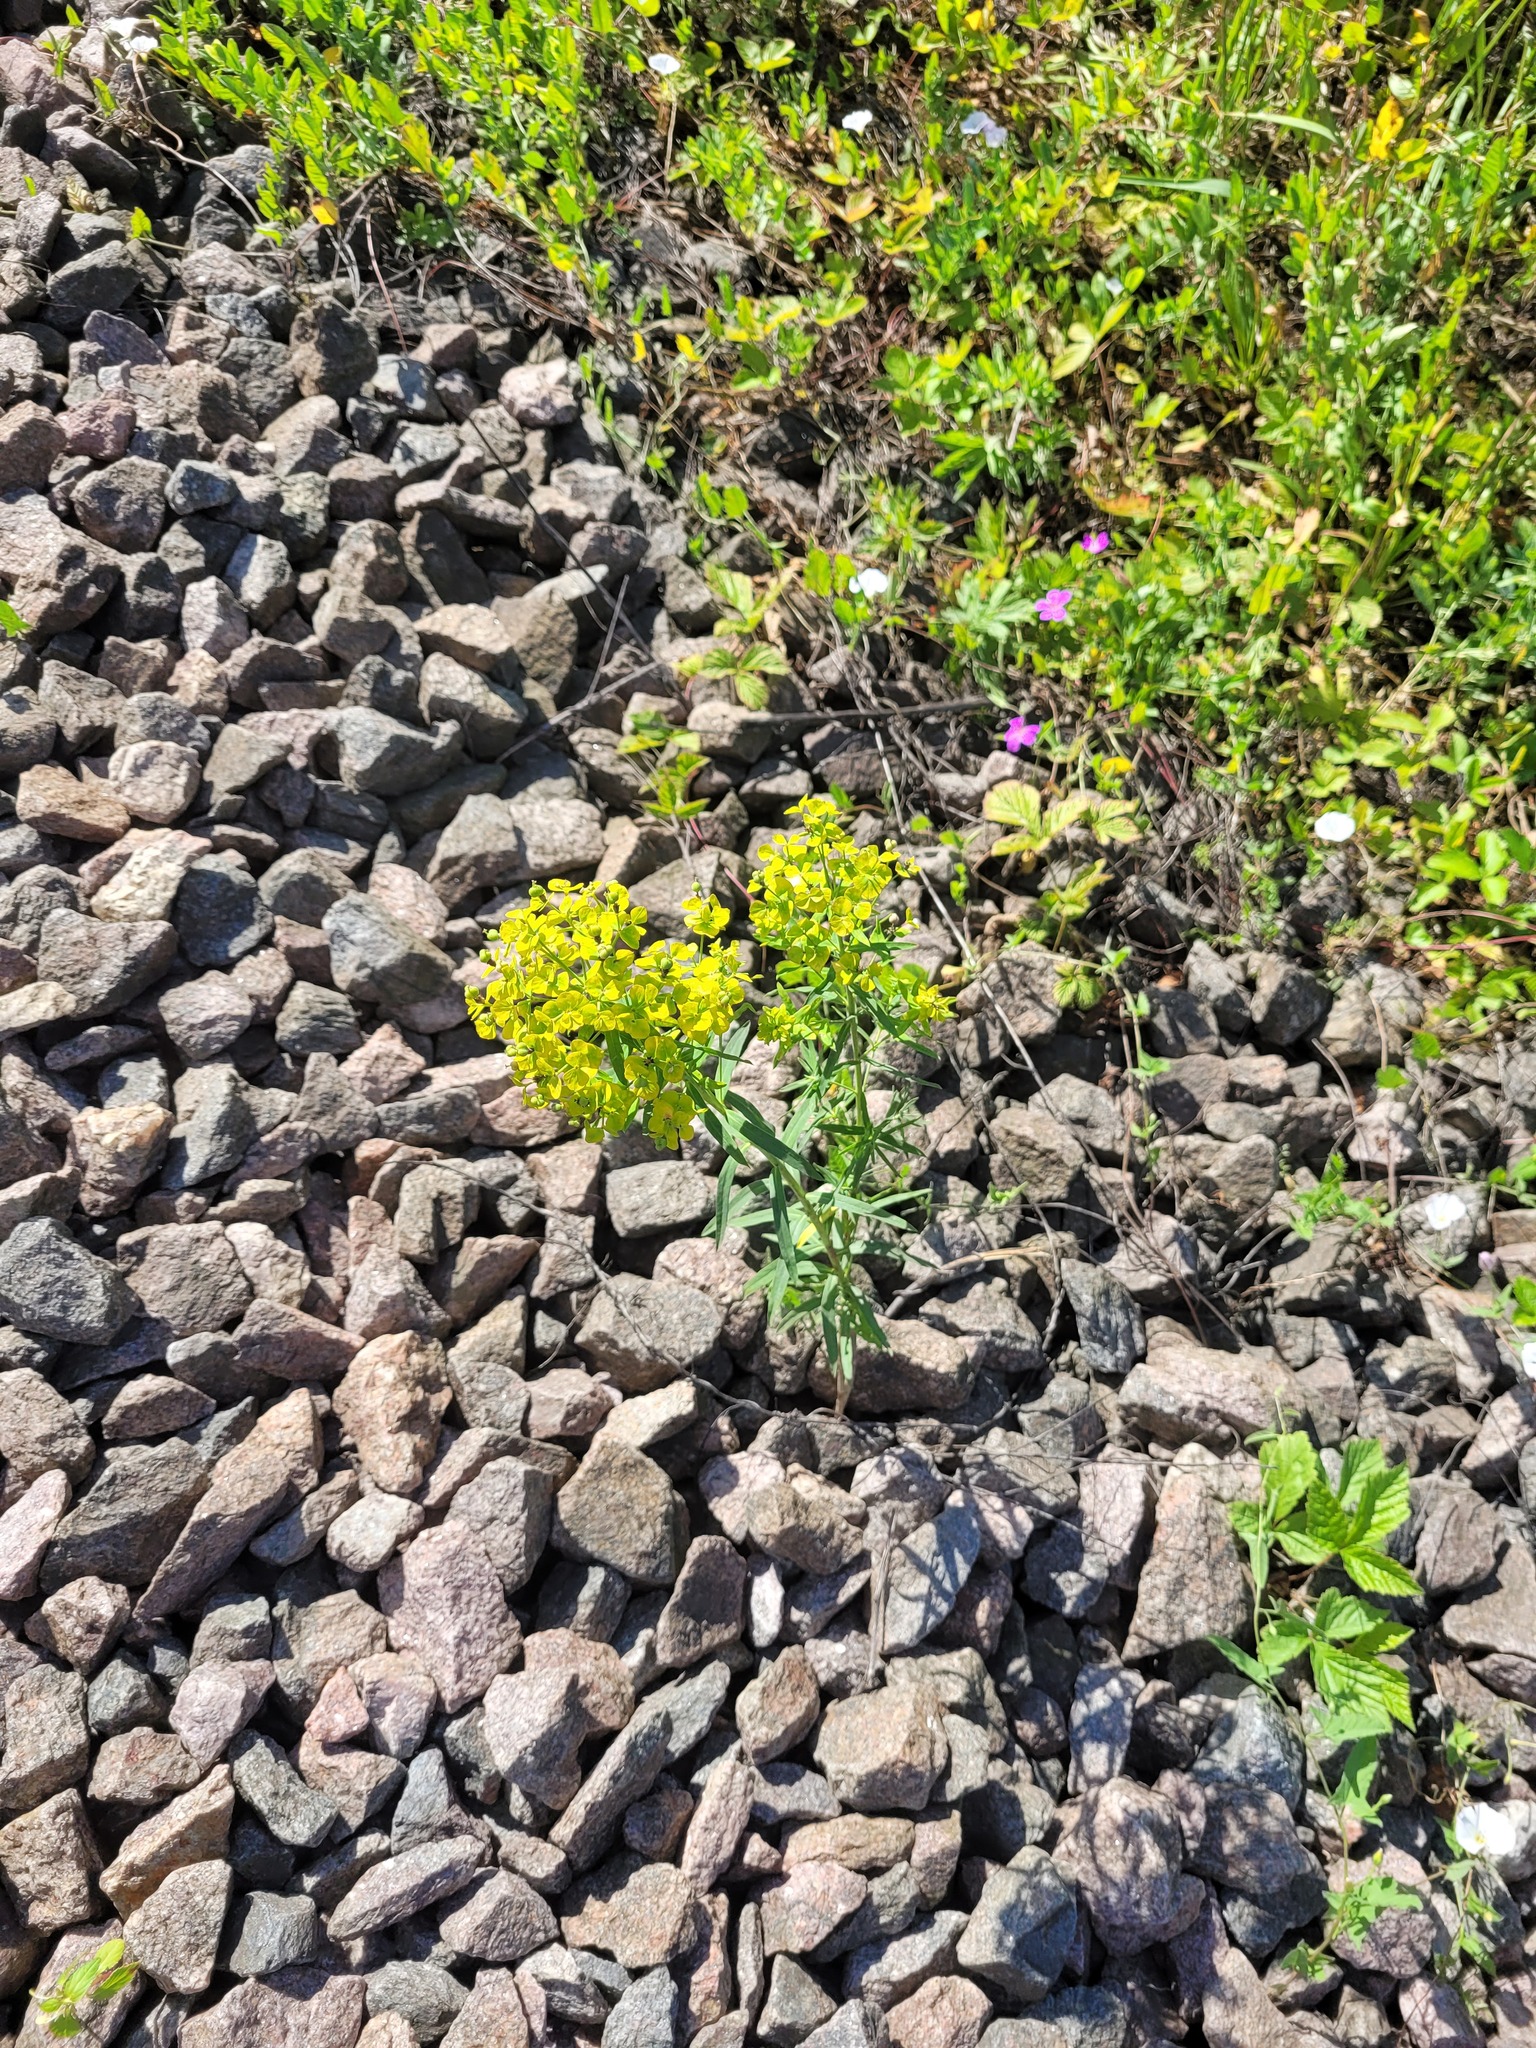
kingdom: Plantae
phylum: Tracheophyta
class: Magnoliopsida
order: Malpighiales
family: Euphorbiaceae
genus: Euphorbia
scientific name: Euphorbia virgata
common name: Leafy spurge
